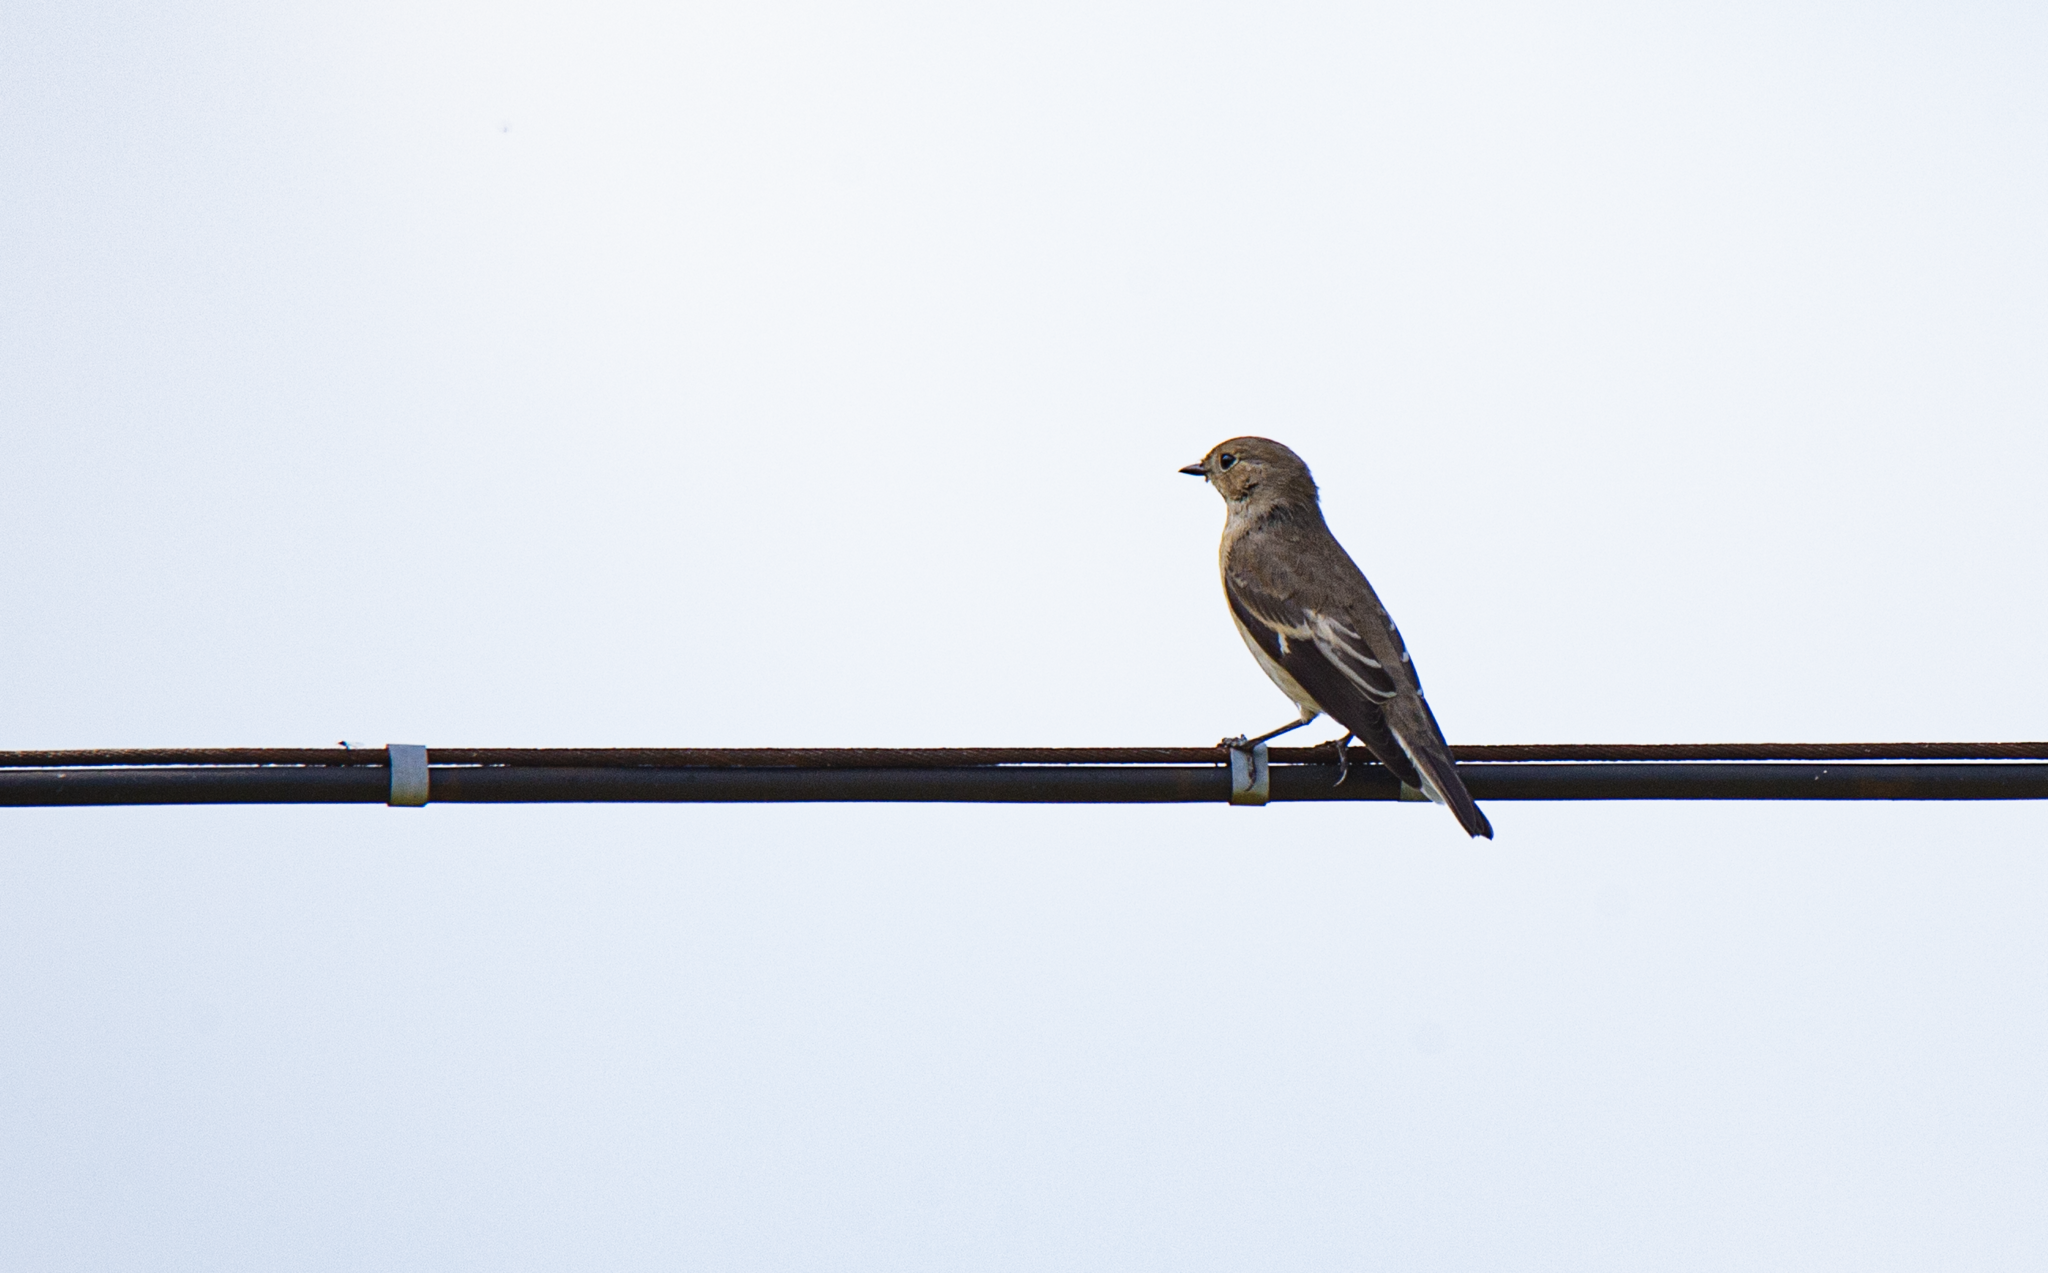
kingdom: Animalia
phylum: Chordata
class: Aves
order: Passeriformes
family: Muscicapidae
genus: Ficedula
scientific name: Ficedula hypoleuca
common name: European pied flycatcher
